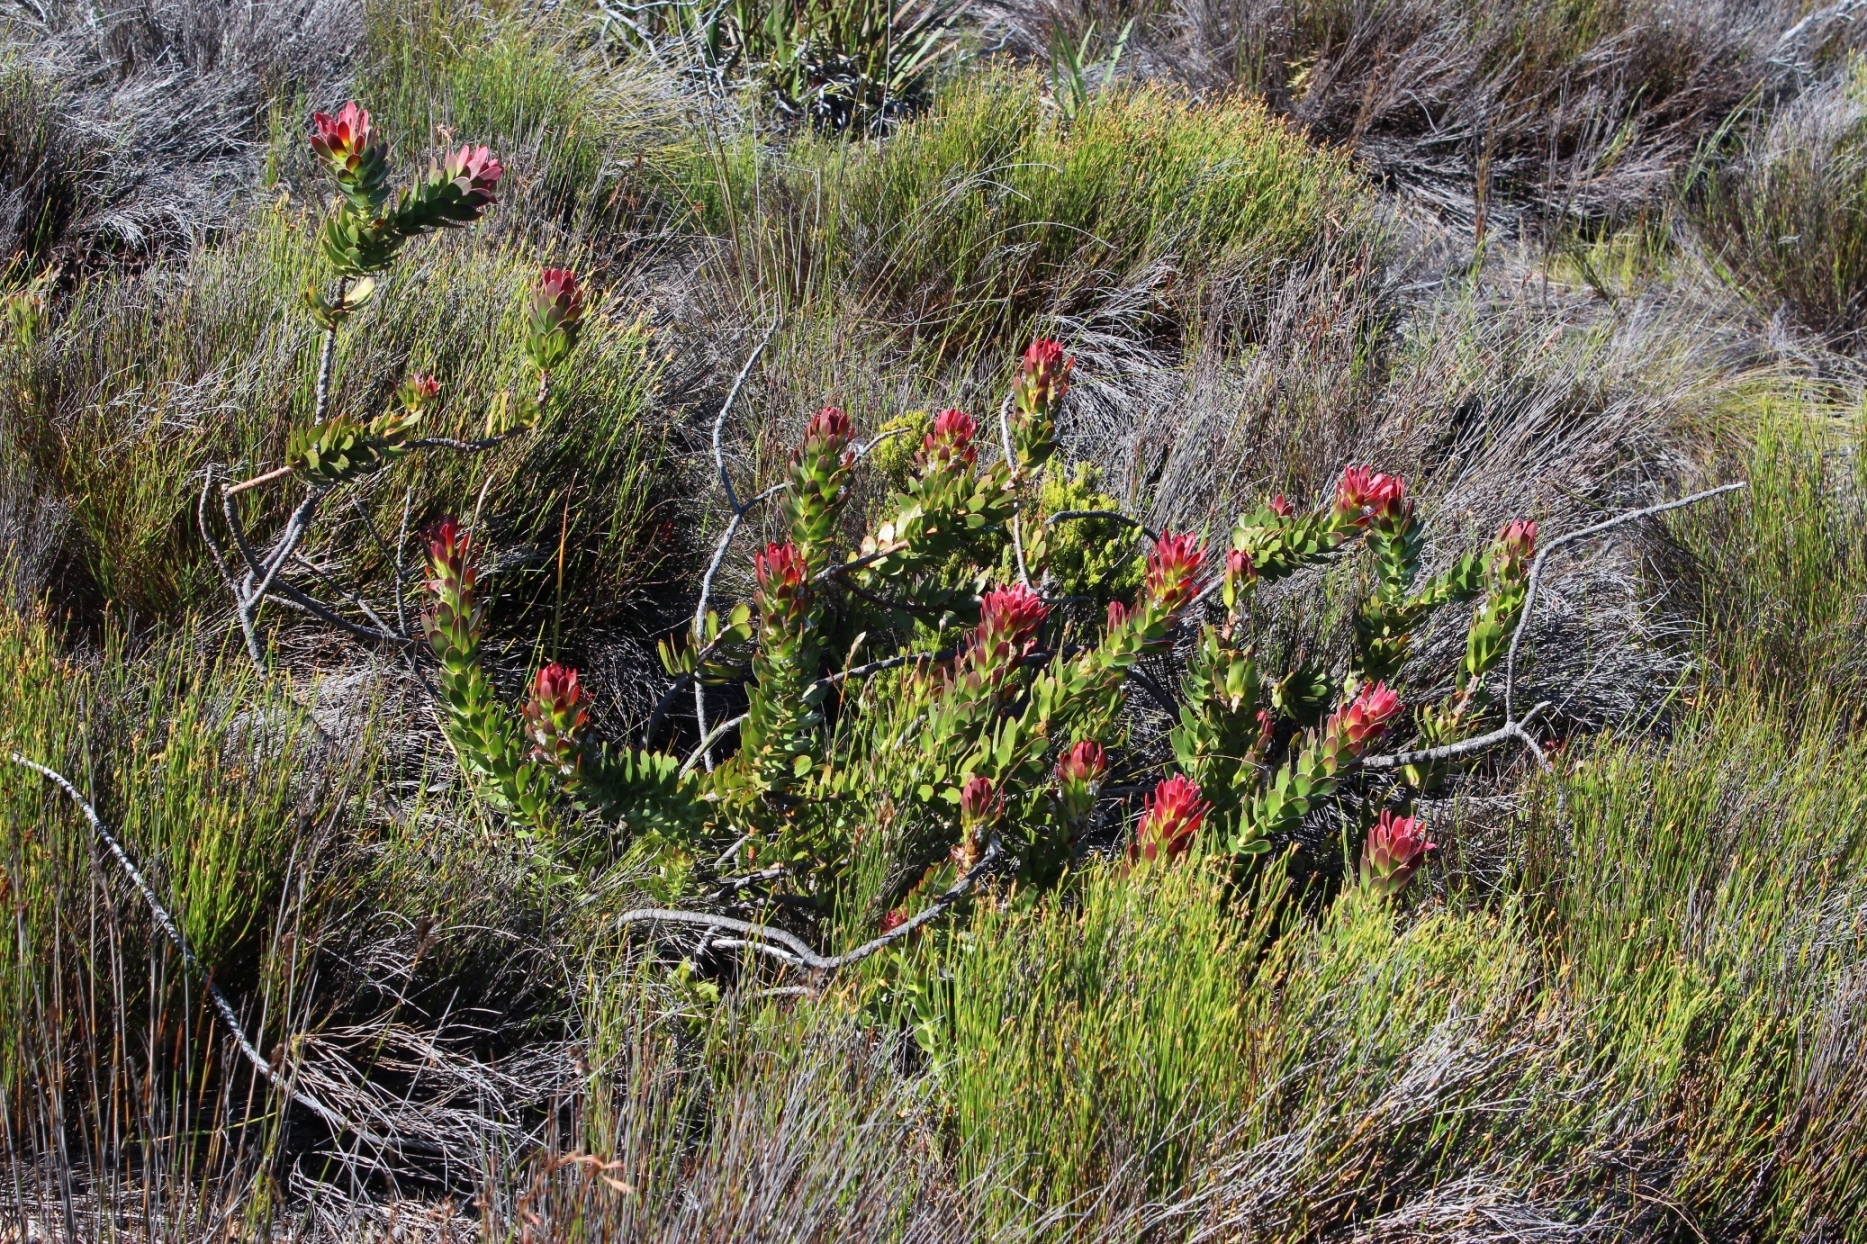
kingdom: Plantae
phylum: Tracheophyta
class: Magnoliopsida
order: Proteales
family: Proteaceae
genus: Mimetes
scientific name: Mimetes cucullatus
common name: Common pagoda
